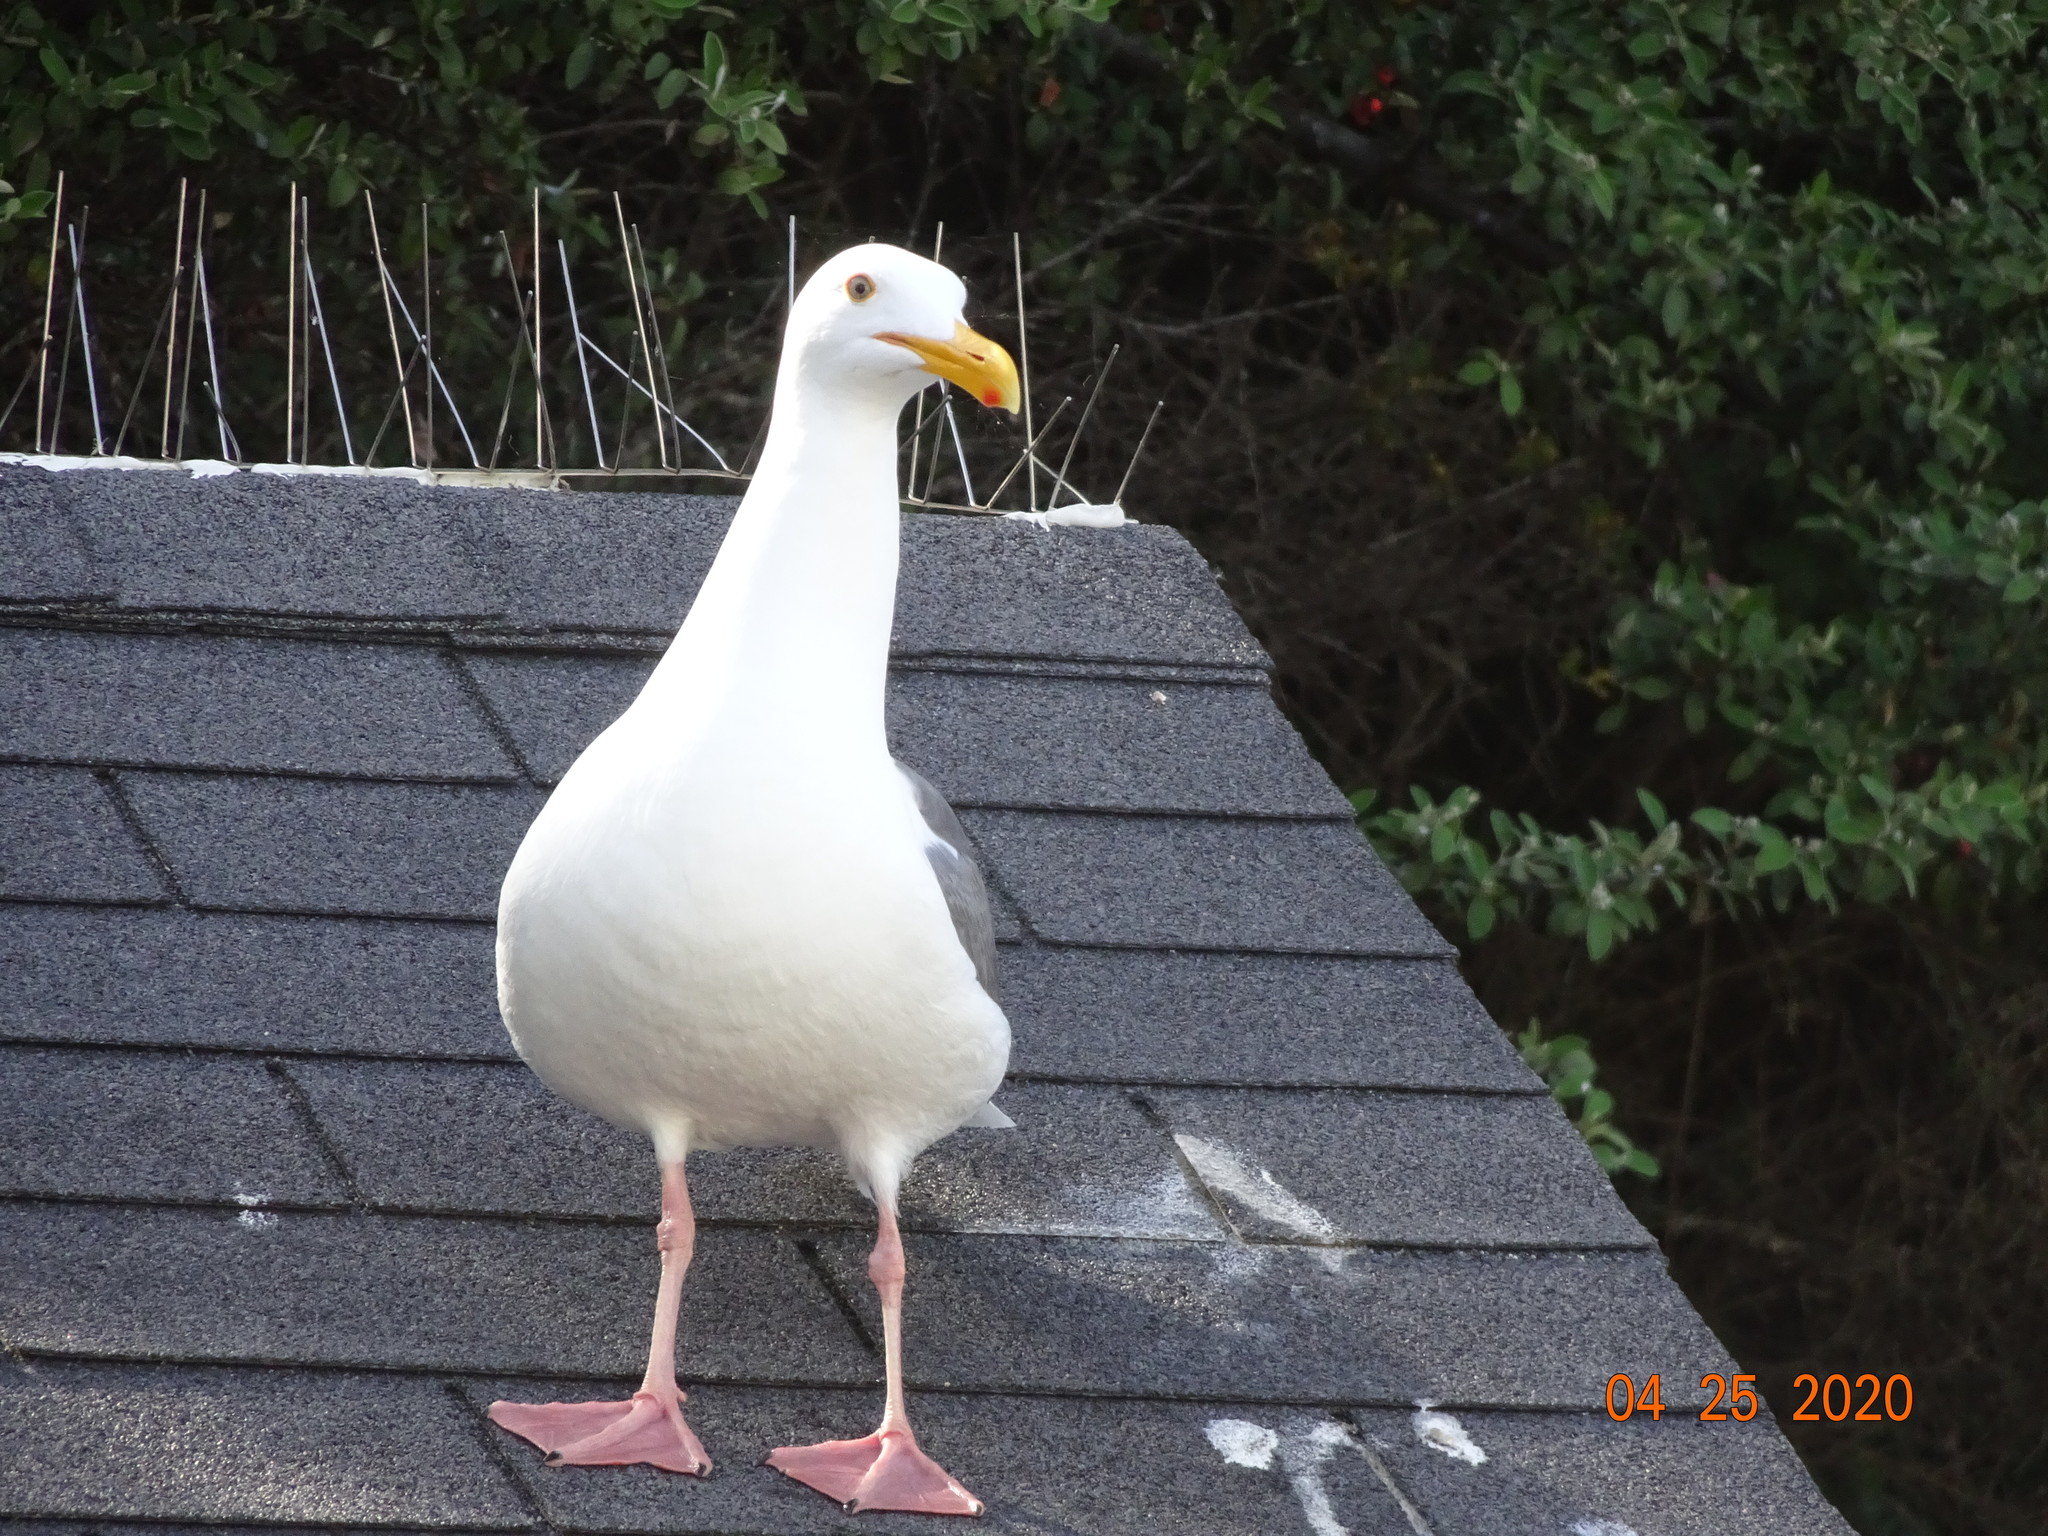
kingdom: Animalia
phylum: Chordata
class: Aves
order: Charadriiformes
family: Laridae
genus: Larus
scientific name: Larus occidentalis
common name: Western gull
